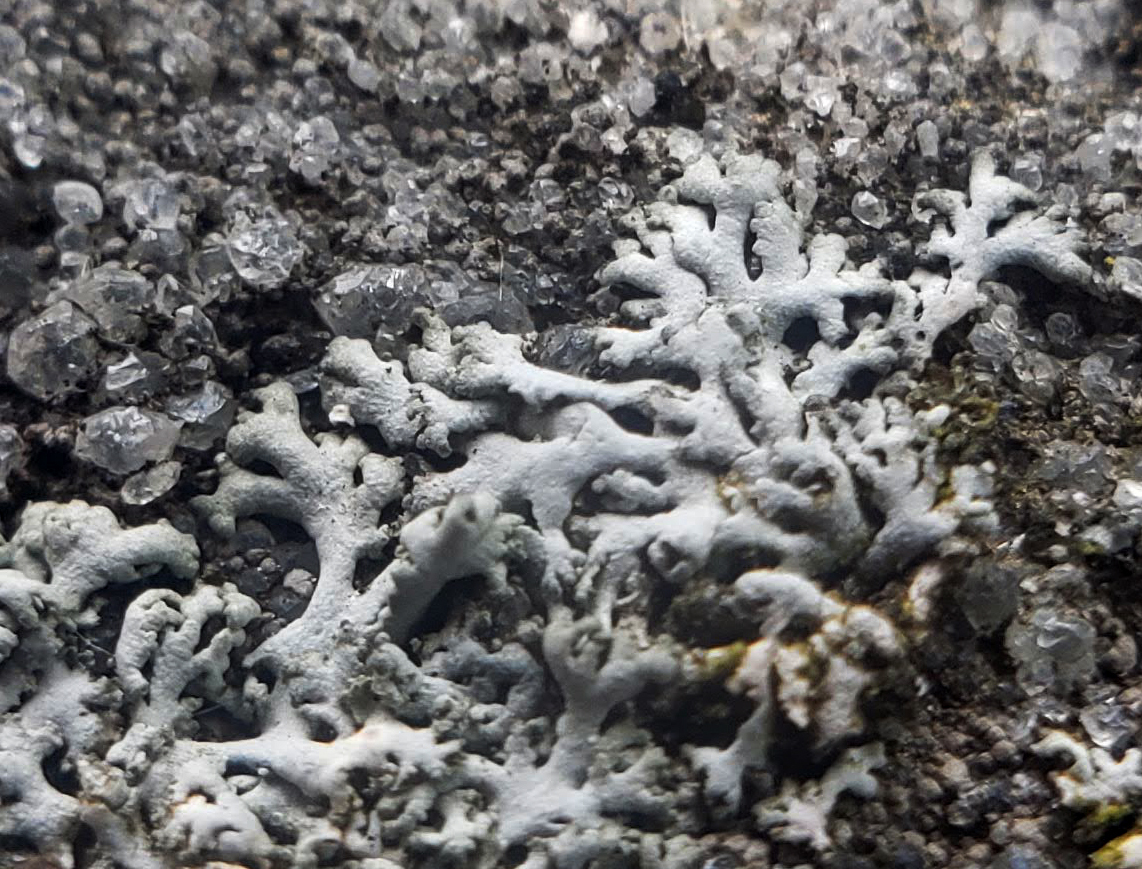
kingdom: Fungi
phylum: Ascomycota
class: Lecanoromycetes
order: Caliciales
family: Physciaceae
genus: Physcia
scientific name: Physcia thomsoniana
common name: Thomson's rosette lichen
